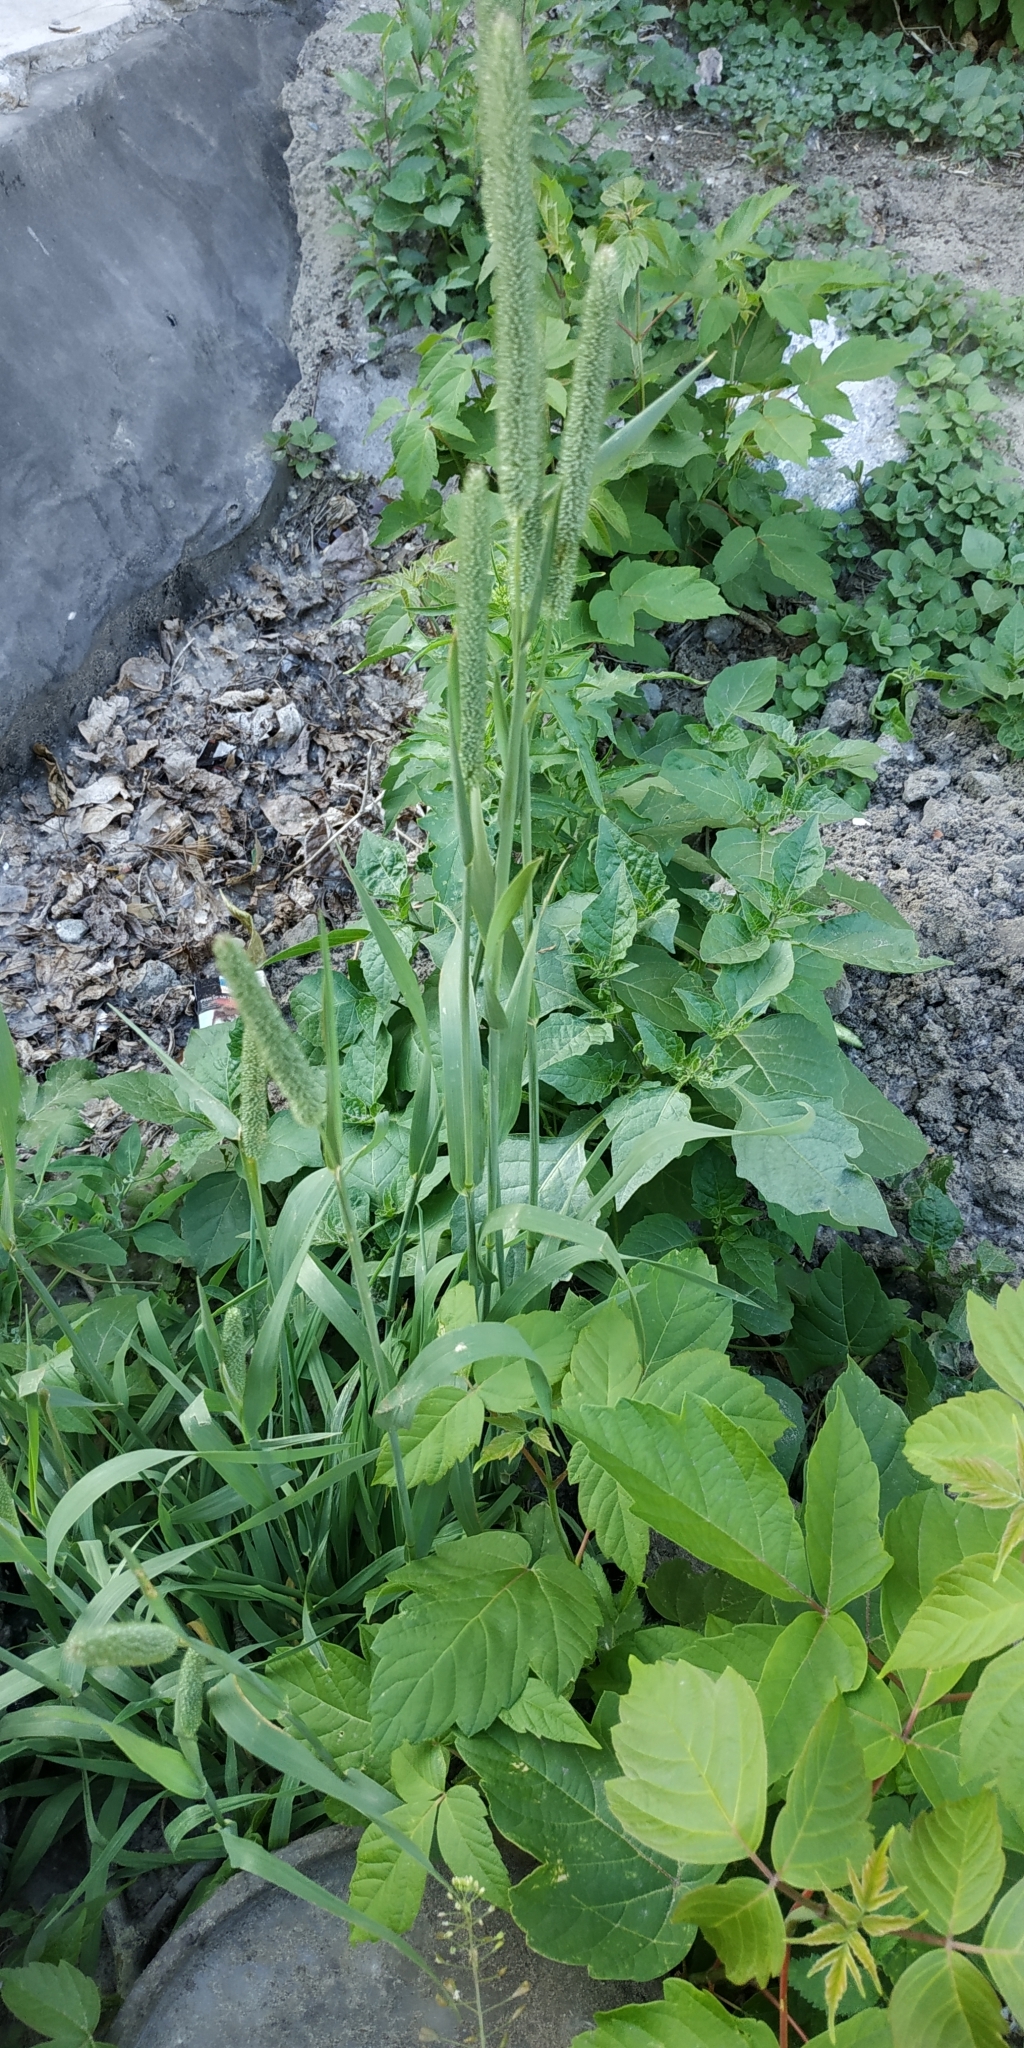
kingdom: Plantae
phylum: Tracheophyta
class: Liliopsida
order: Poales
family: Poaceae
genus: Phleum
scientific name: Phleum pratense
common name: Timothy grass
